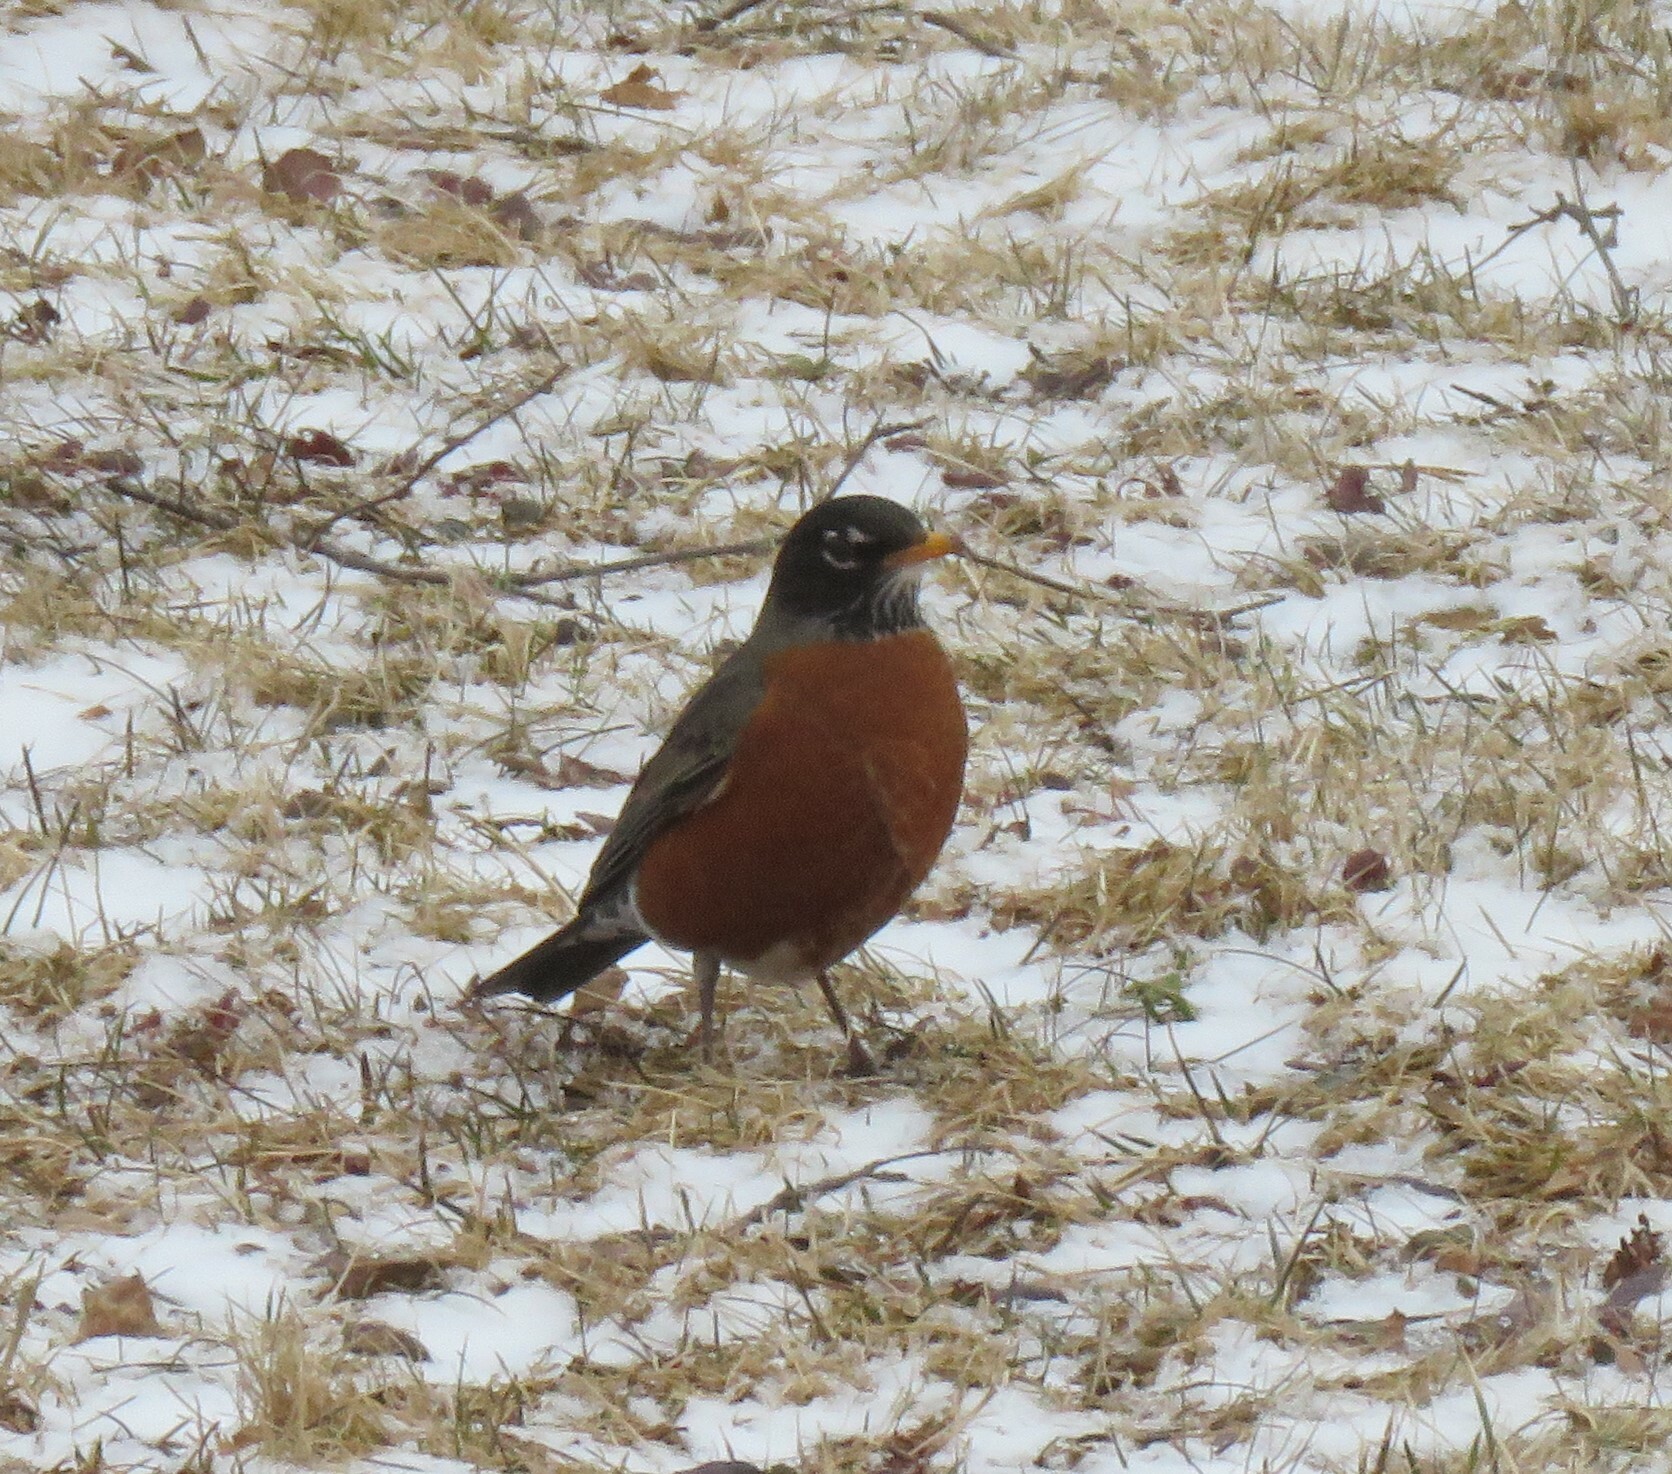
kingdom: Animalia
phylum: Chordata
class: Aves
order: Passeriformes
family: Turdidae
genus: Turdus
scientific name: Turdus migratorius
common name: American robin
